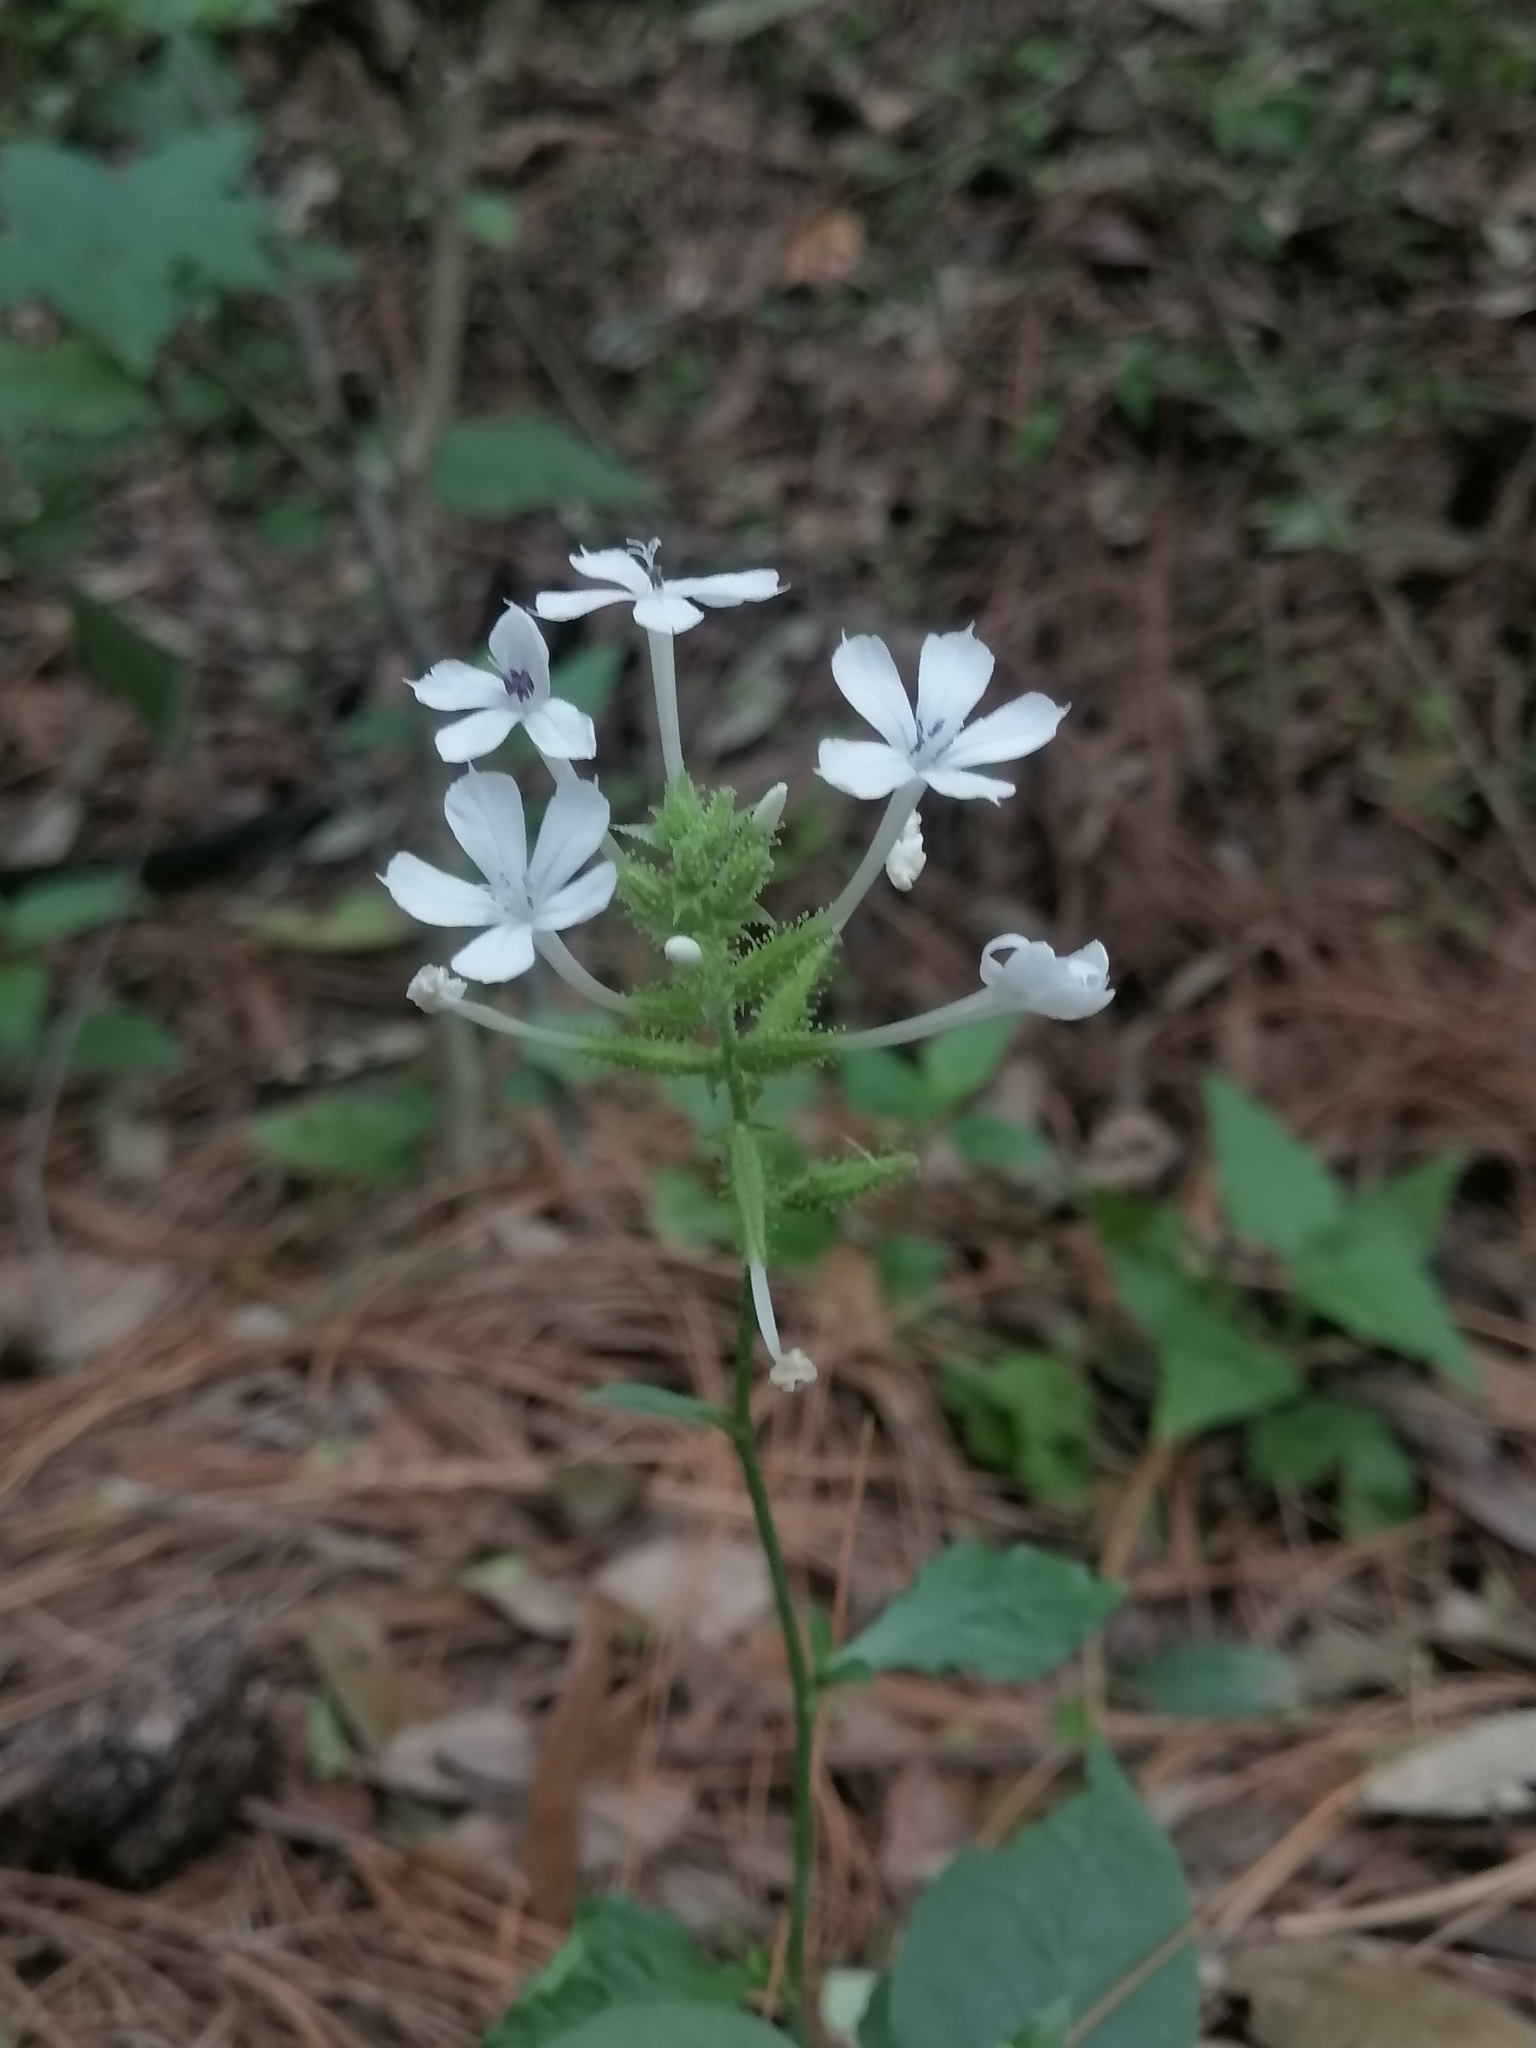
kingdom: Plantae
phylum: Tracheophyta
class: Magnoliopsida
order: Caryophyllales
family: Plumbaginaceae
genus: Plumbago
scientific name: Plumbago zeylanica
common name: Doctorbush
